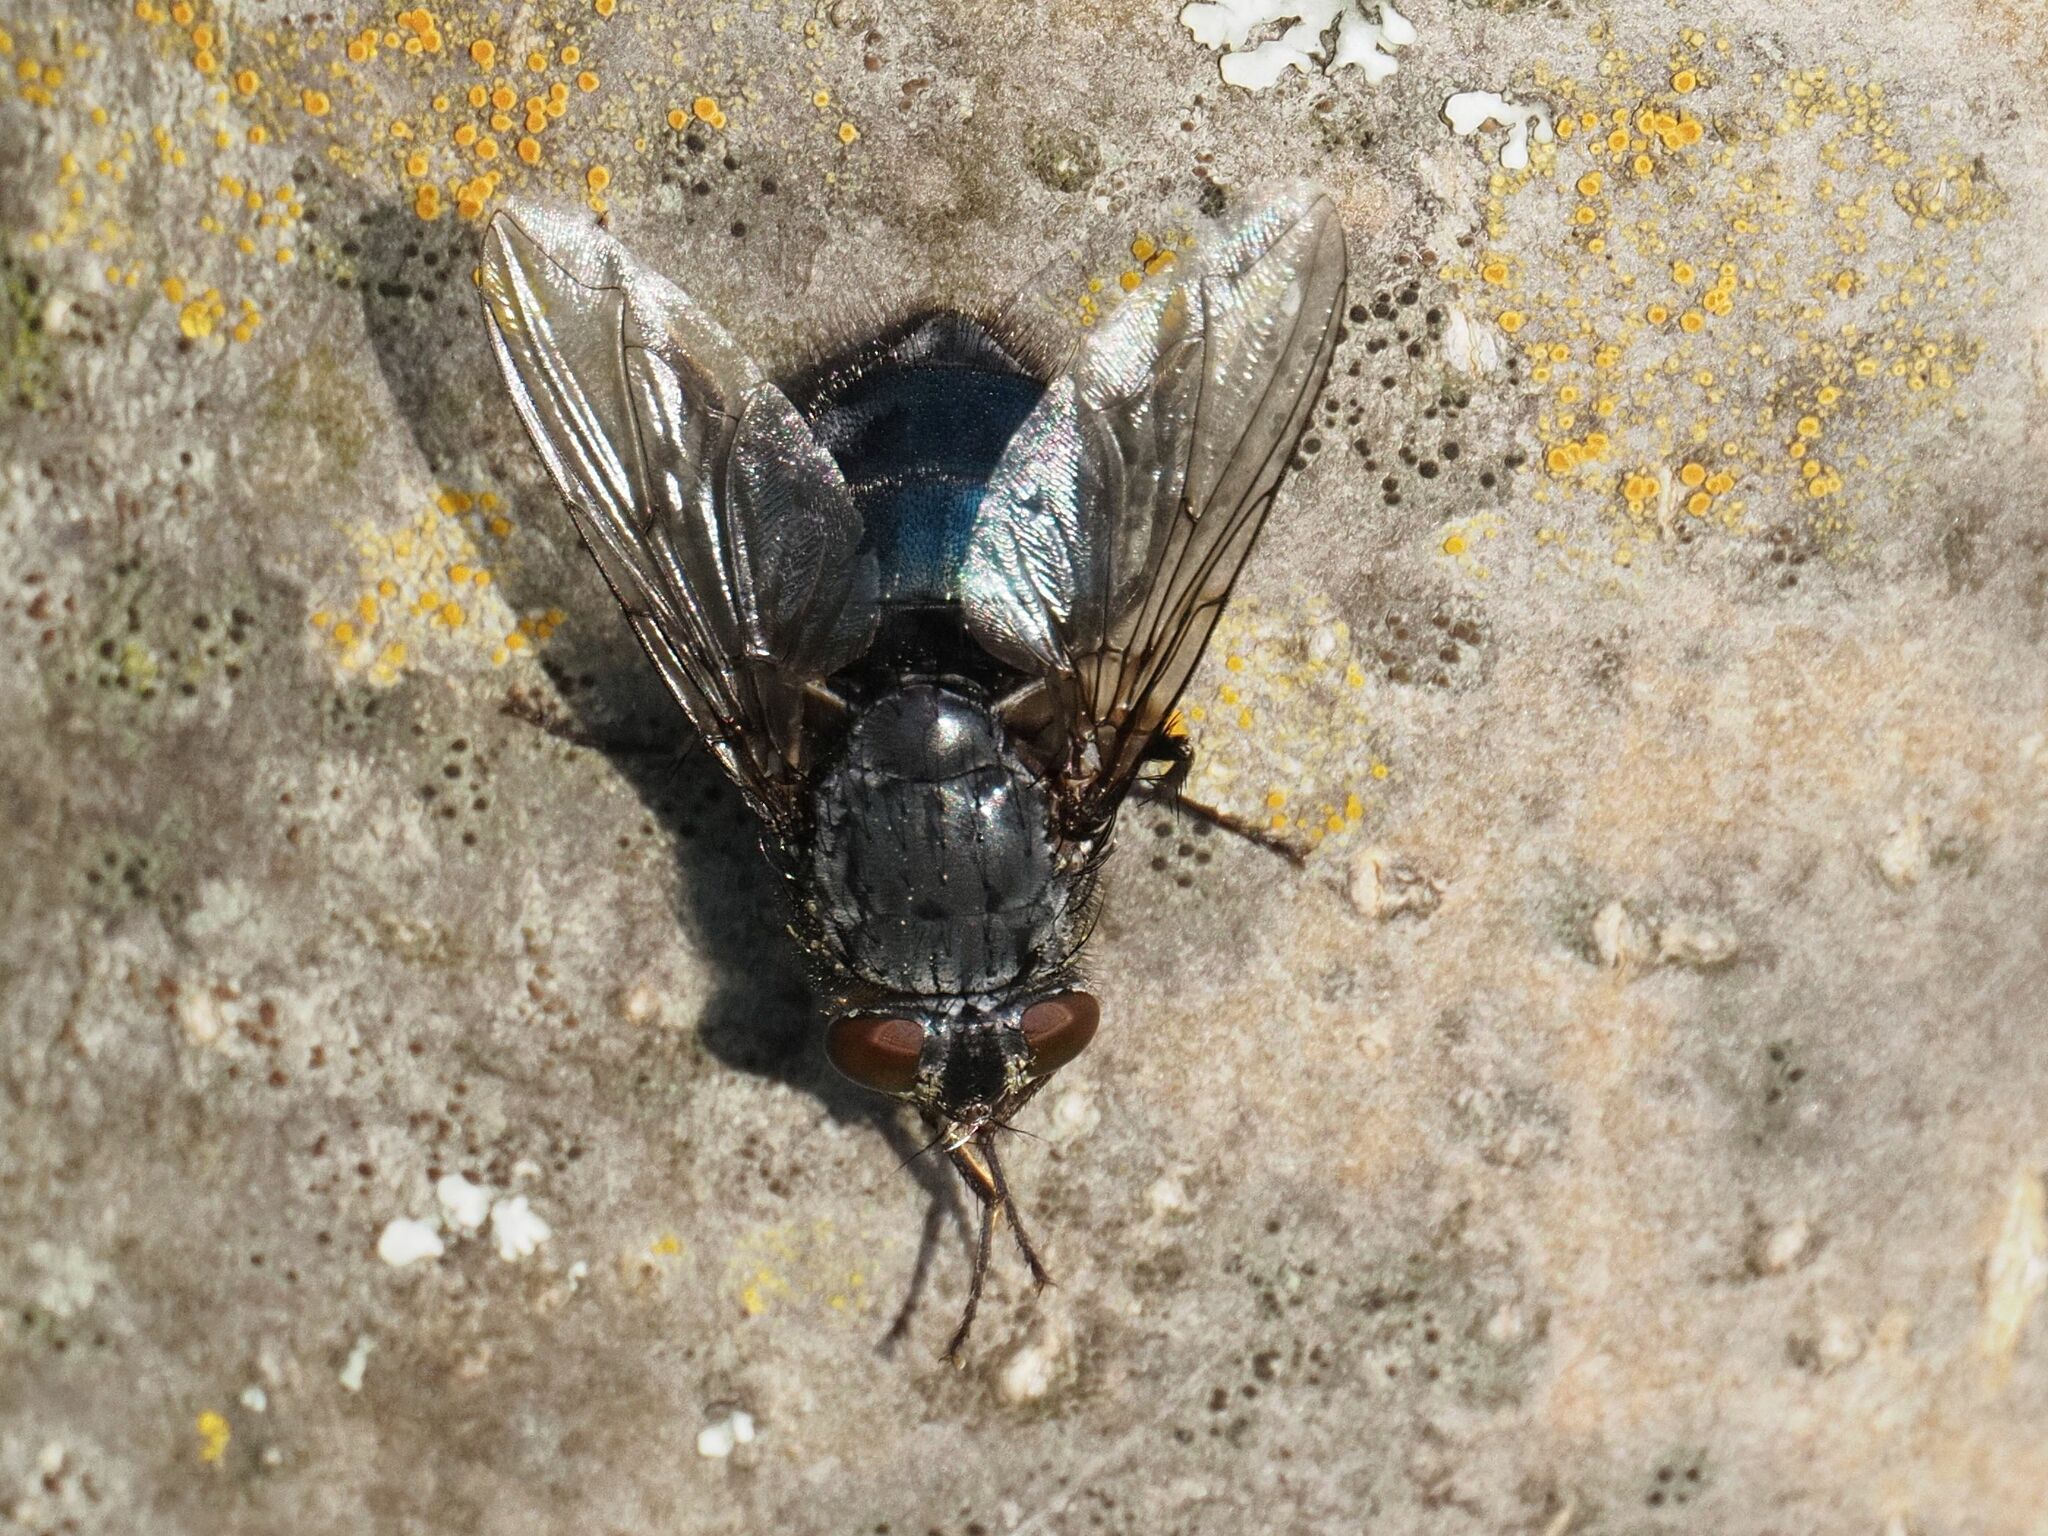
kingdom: Animalia
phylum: Arthropoda
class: Insecta
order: Diptera
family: Calliphoridae
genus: Calliphora
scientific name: Calliphora vomitoria
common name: Blue bottle fly
